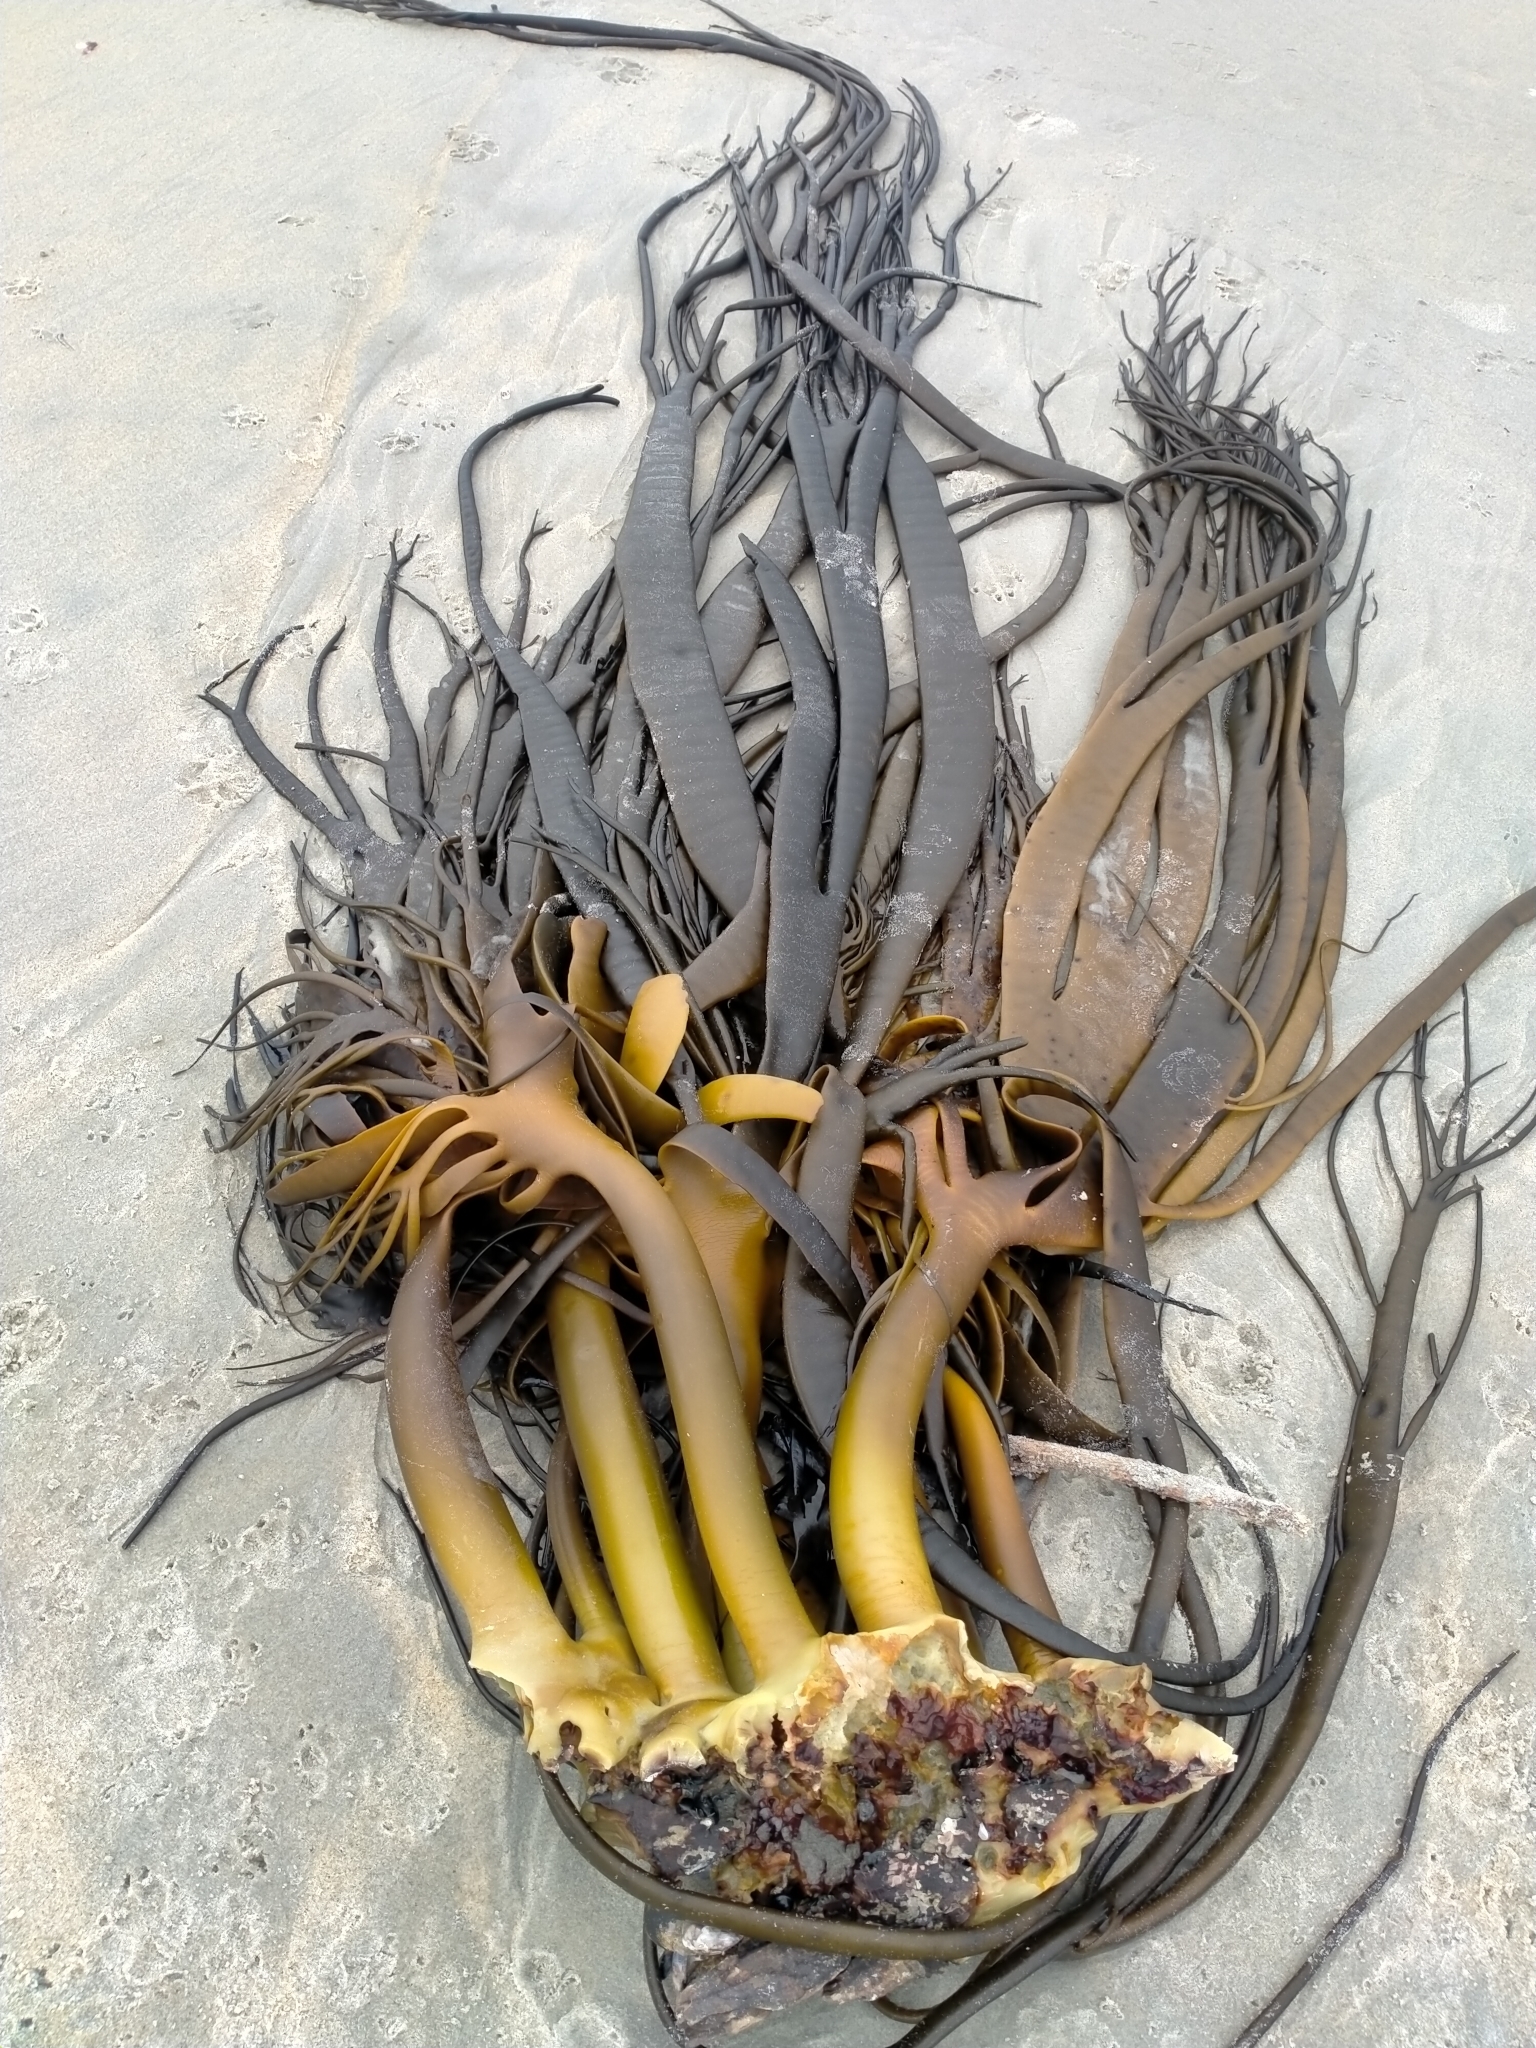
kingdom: Chromista
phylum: Ochrophyta
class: Phaeophyceae
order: Fucales
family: Durvillaeaceae
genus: Durvillaea
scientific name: Durvillaea antarctica
